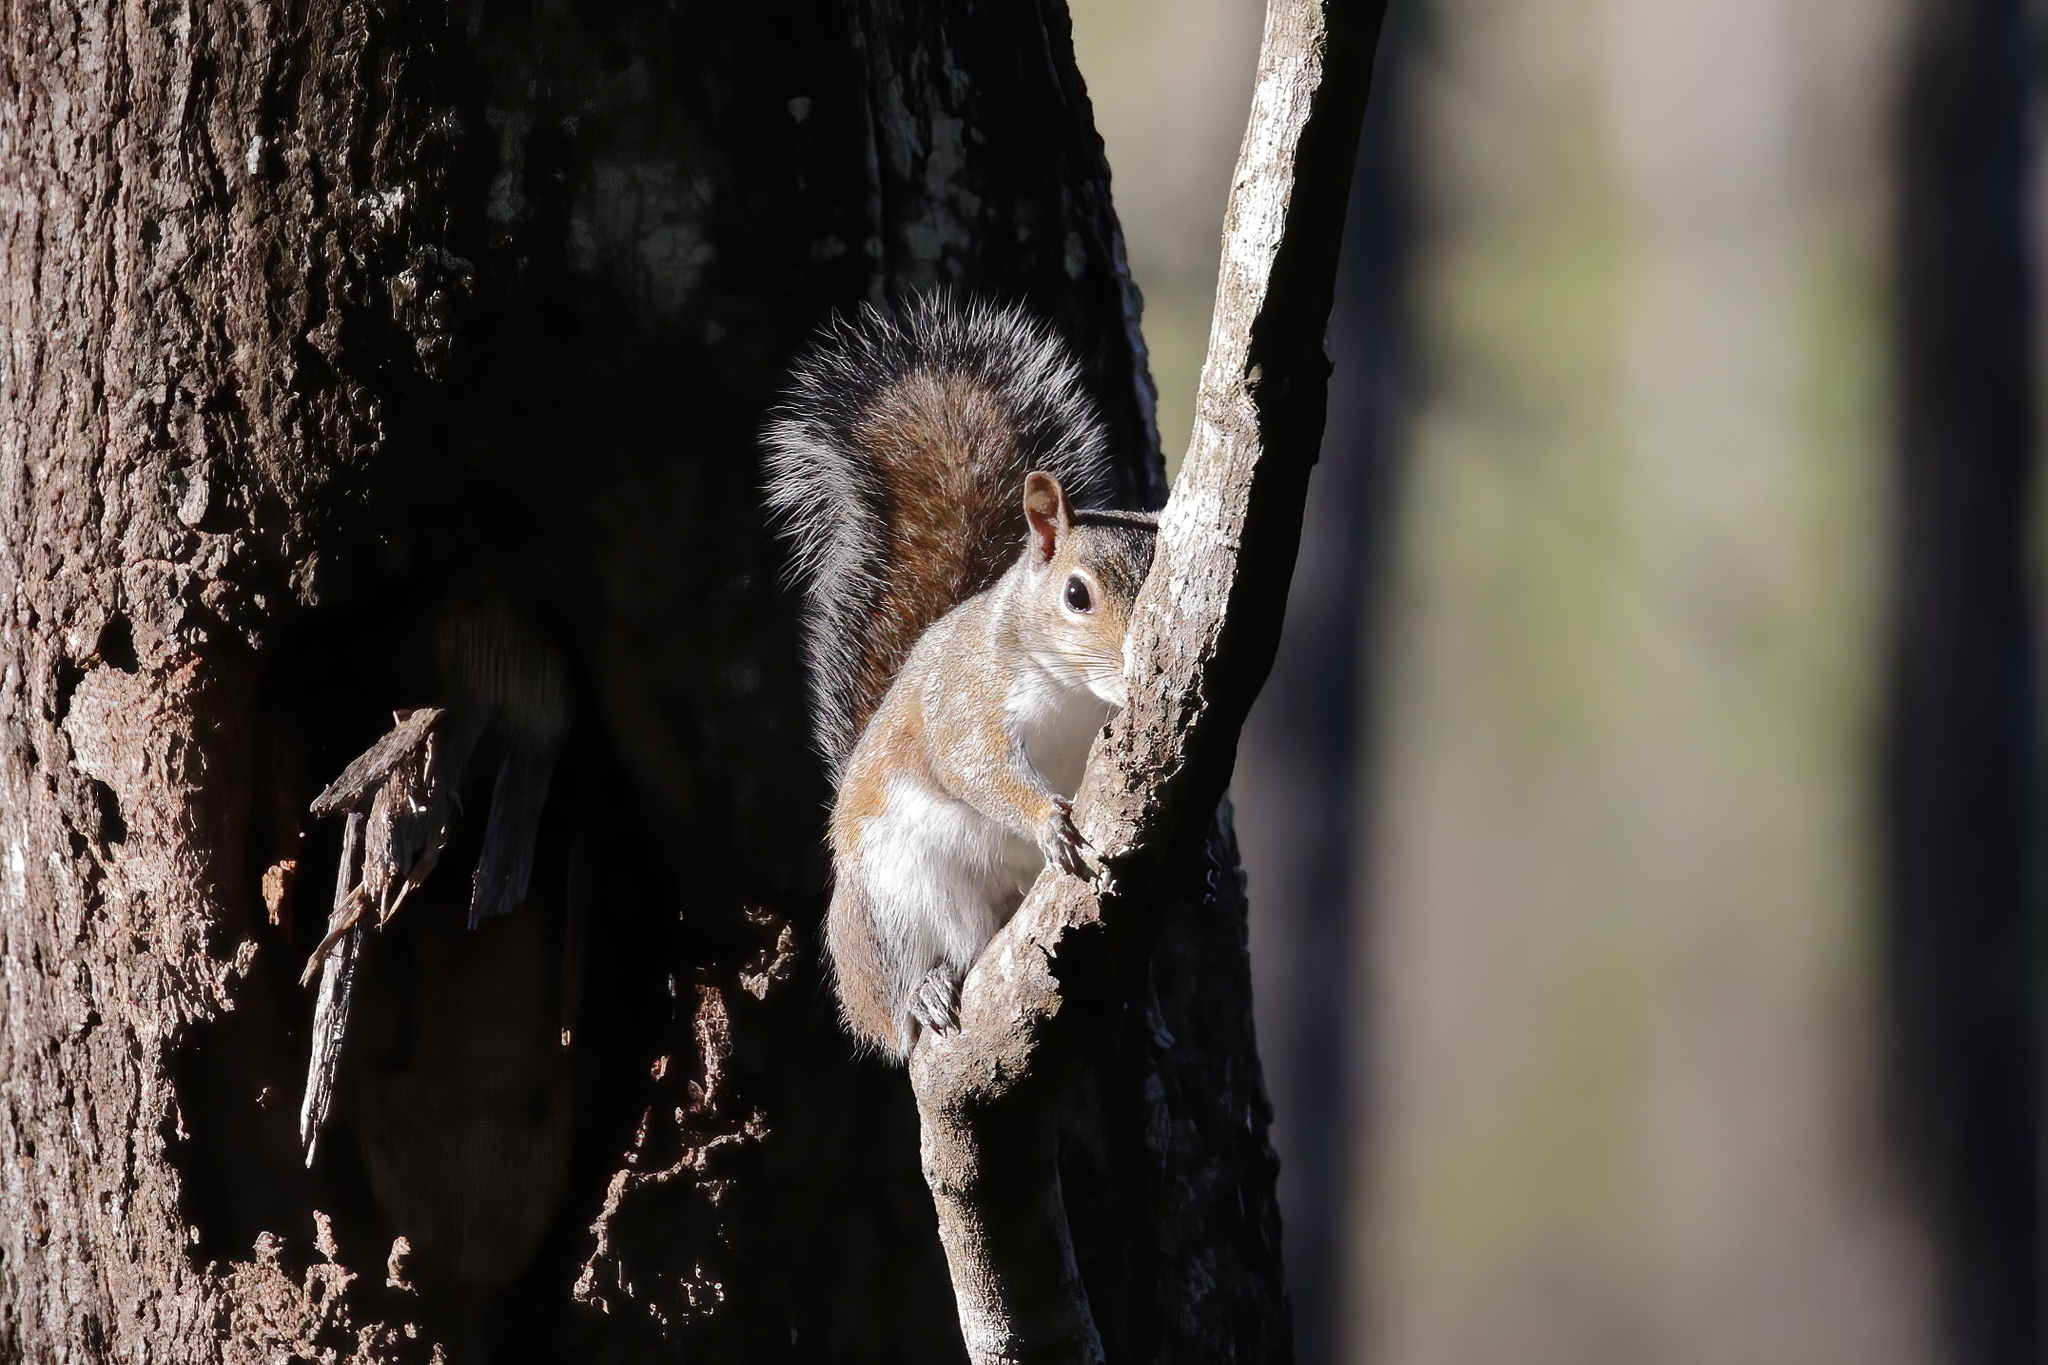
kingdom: Animalia
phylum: Chordata
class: Mammalia
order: Rodentia
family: Sciuridae
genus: Sciurus
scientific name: Sciurus carolinensis
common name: Eastern gray squirrel
